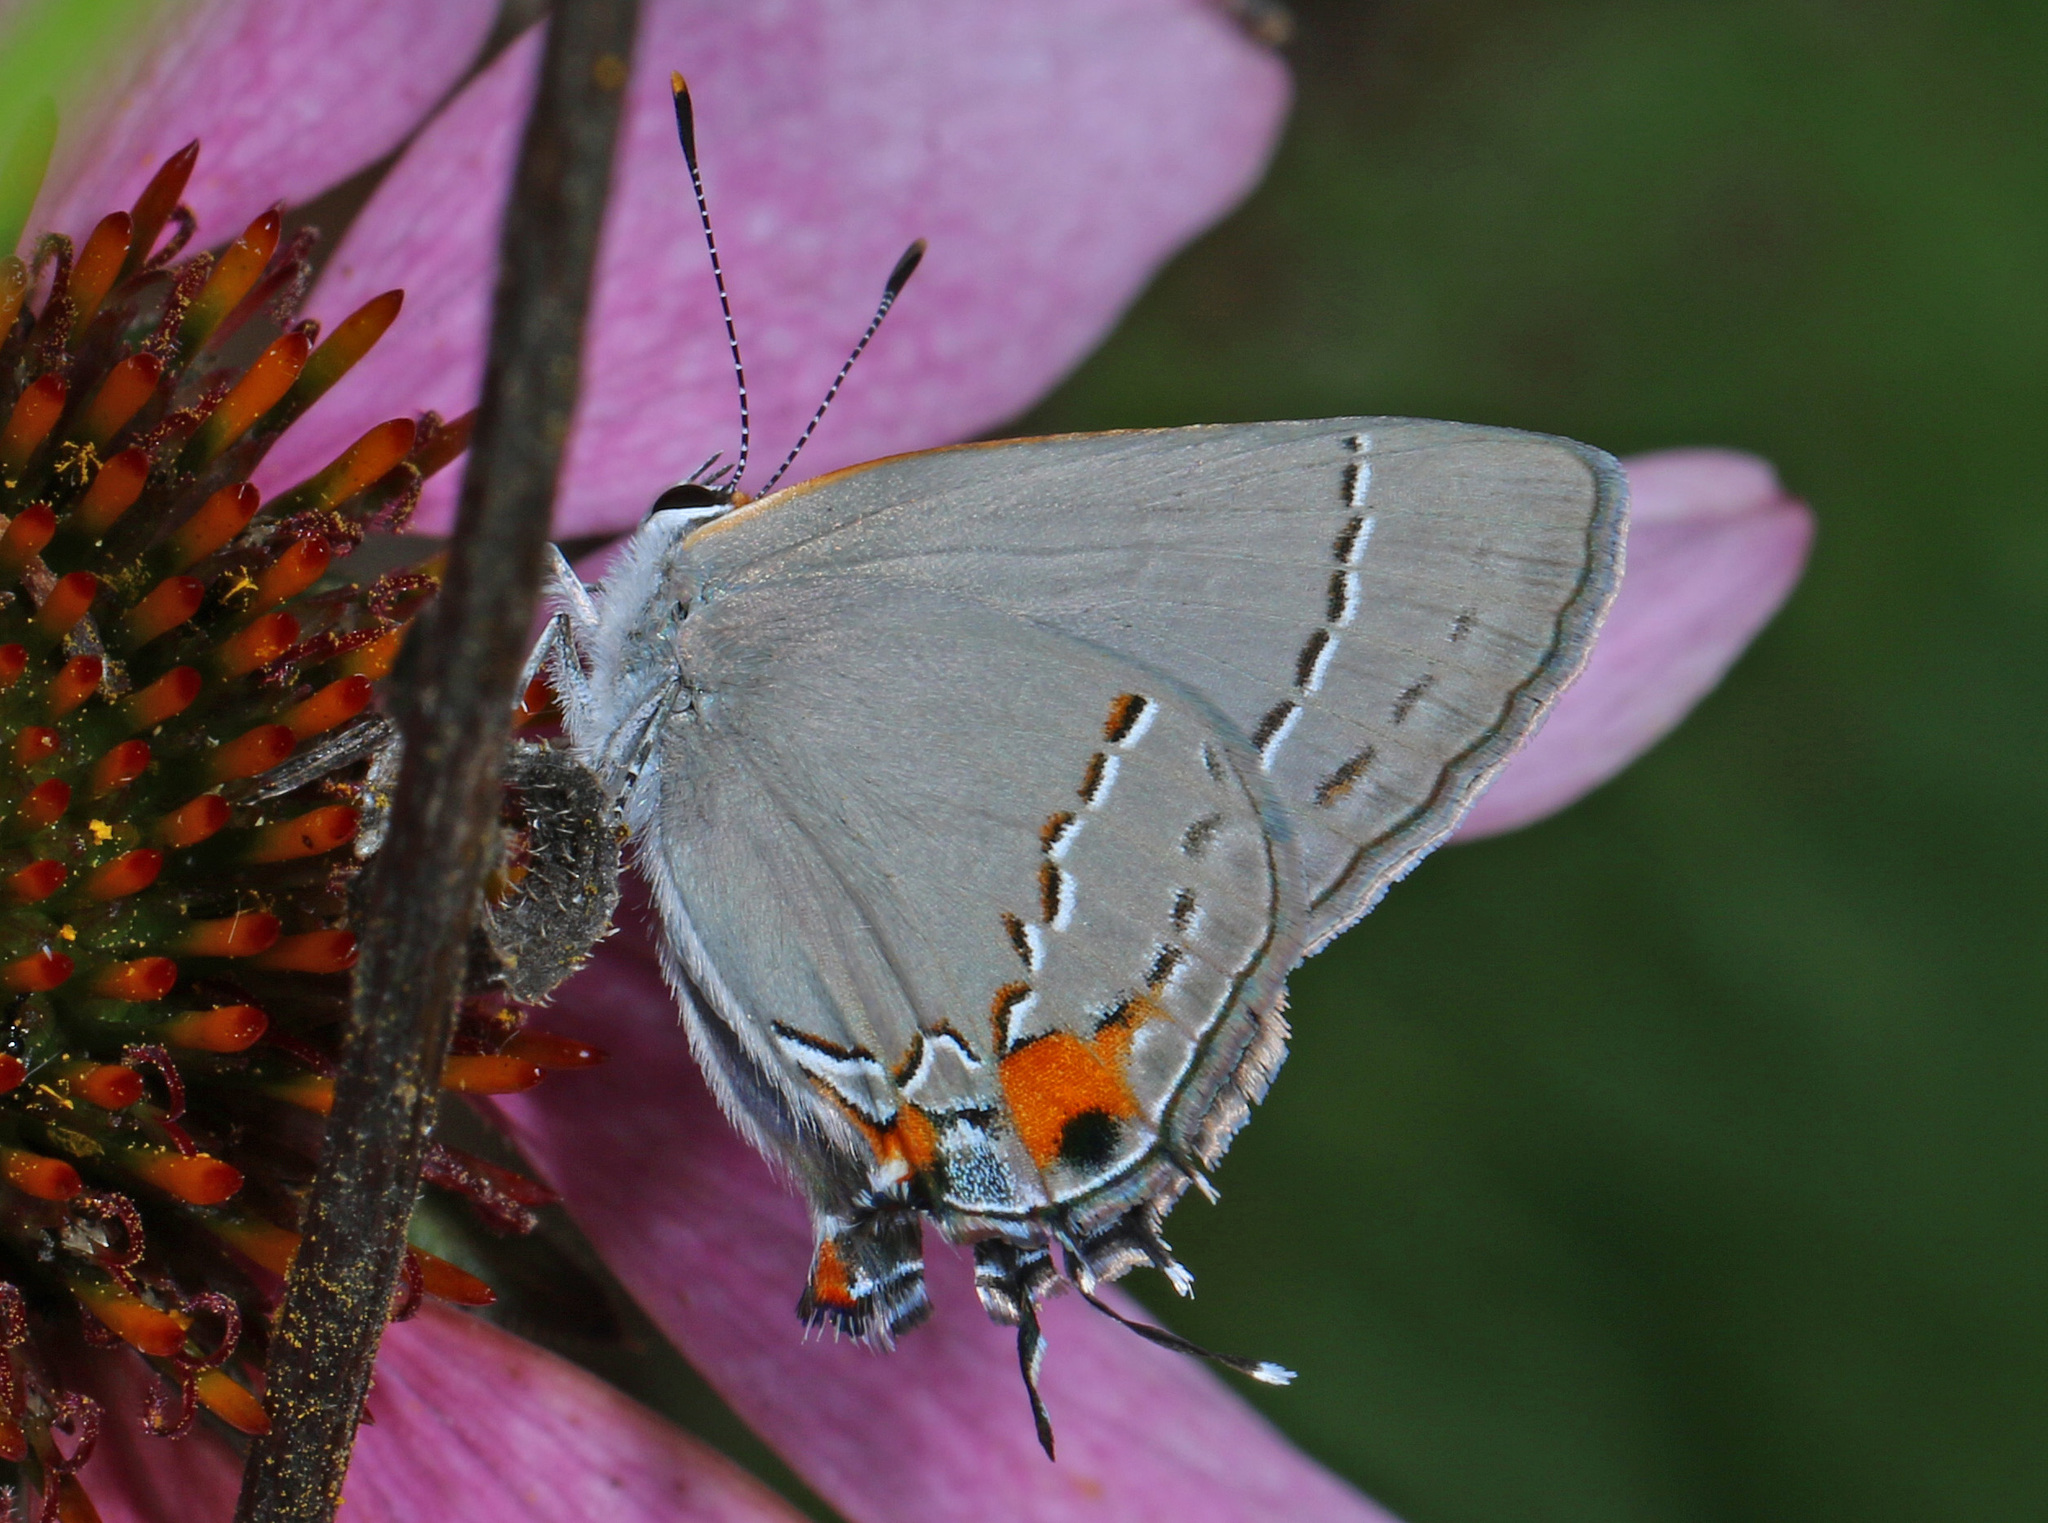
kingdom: Animalia
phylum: Arthropoda
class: Insecta
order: Lepidoptera
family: Lycaenidae
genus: Strymon
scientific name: Strymon melinus
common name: Gray hairstreak
